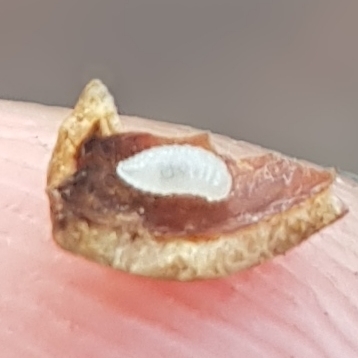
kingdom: Animalia
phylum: Arthropoda
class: Insecta
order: Diptera
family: Cecidomyiidae
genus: Mikiola
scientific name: Mikiola fagi
